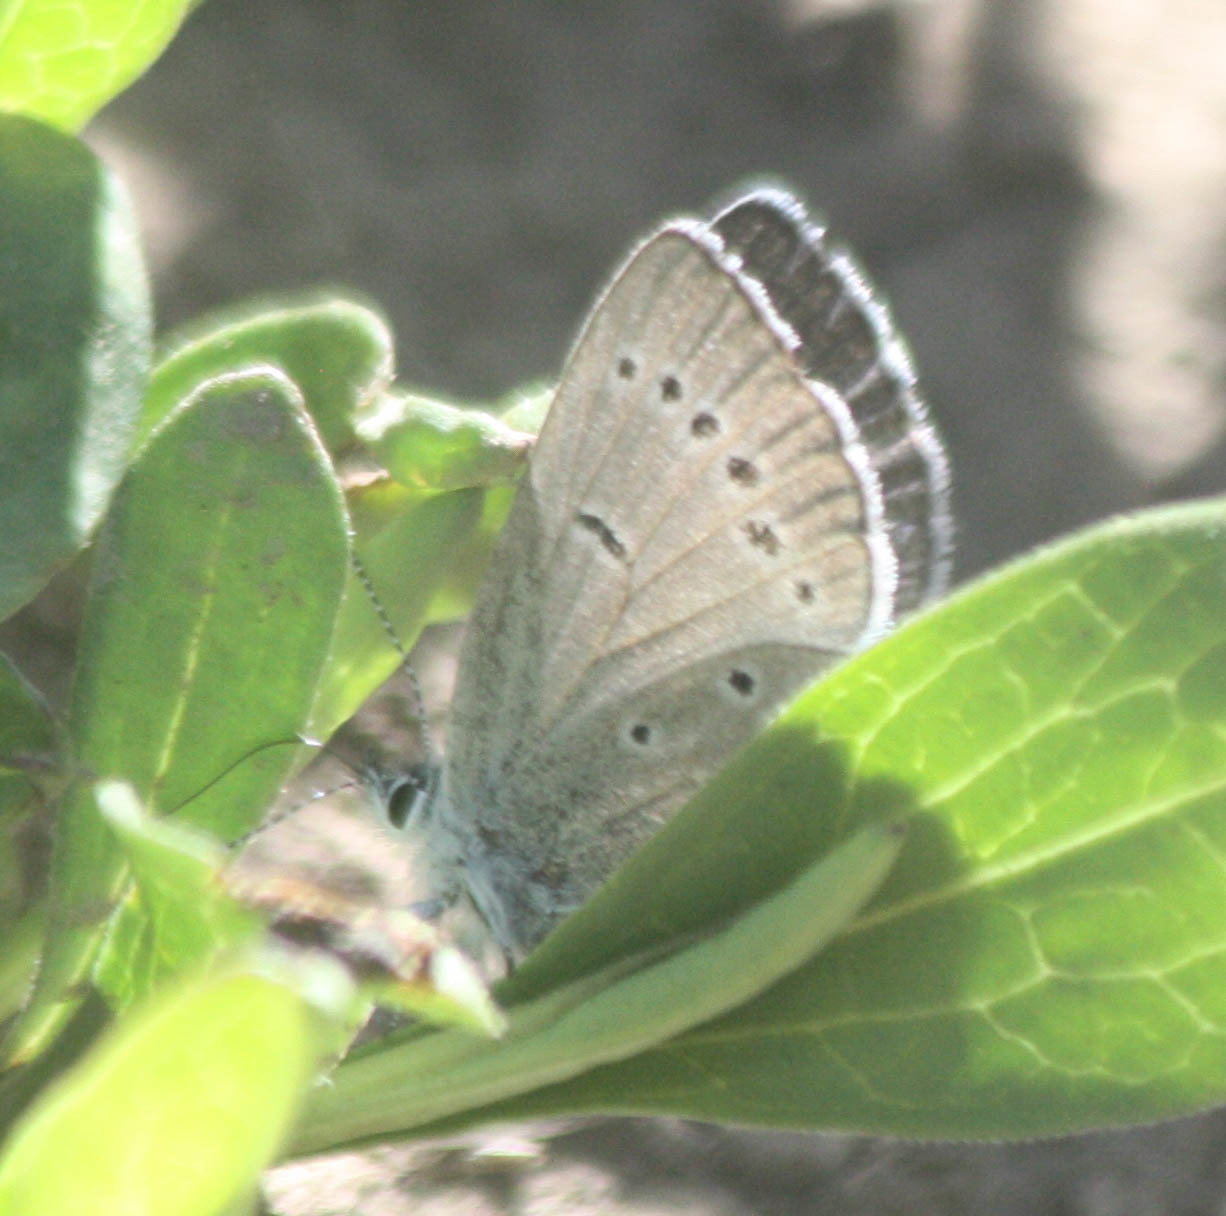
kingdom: Animalia
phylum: Arthropoda
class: Insecta
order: Lepidoptera
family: Lycaenidae
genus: Glaucopsyche
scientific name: Glaucopsyche lygdamus
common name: Silvery blue
